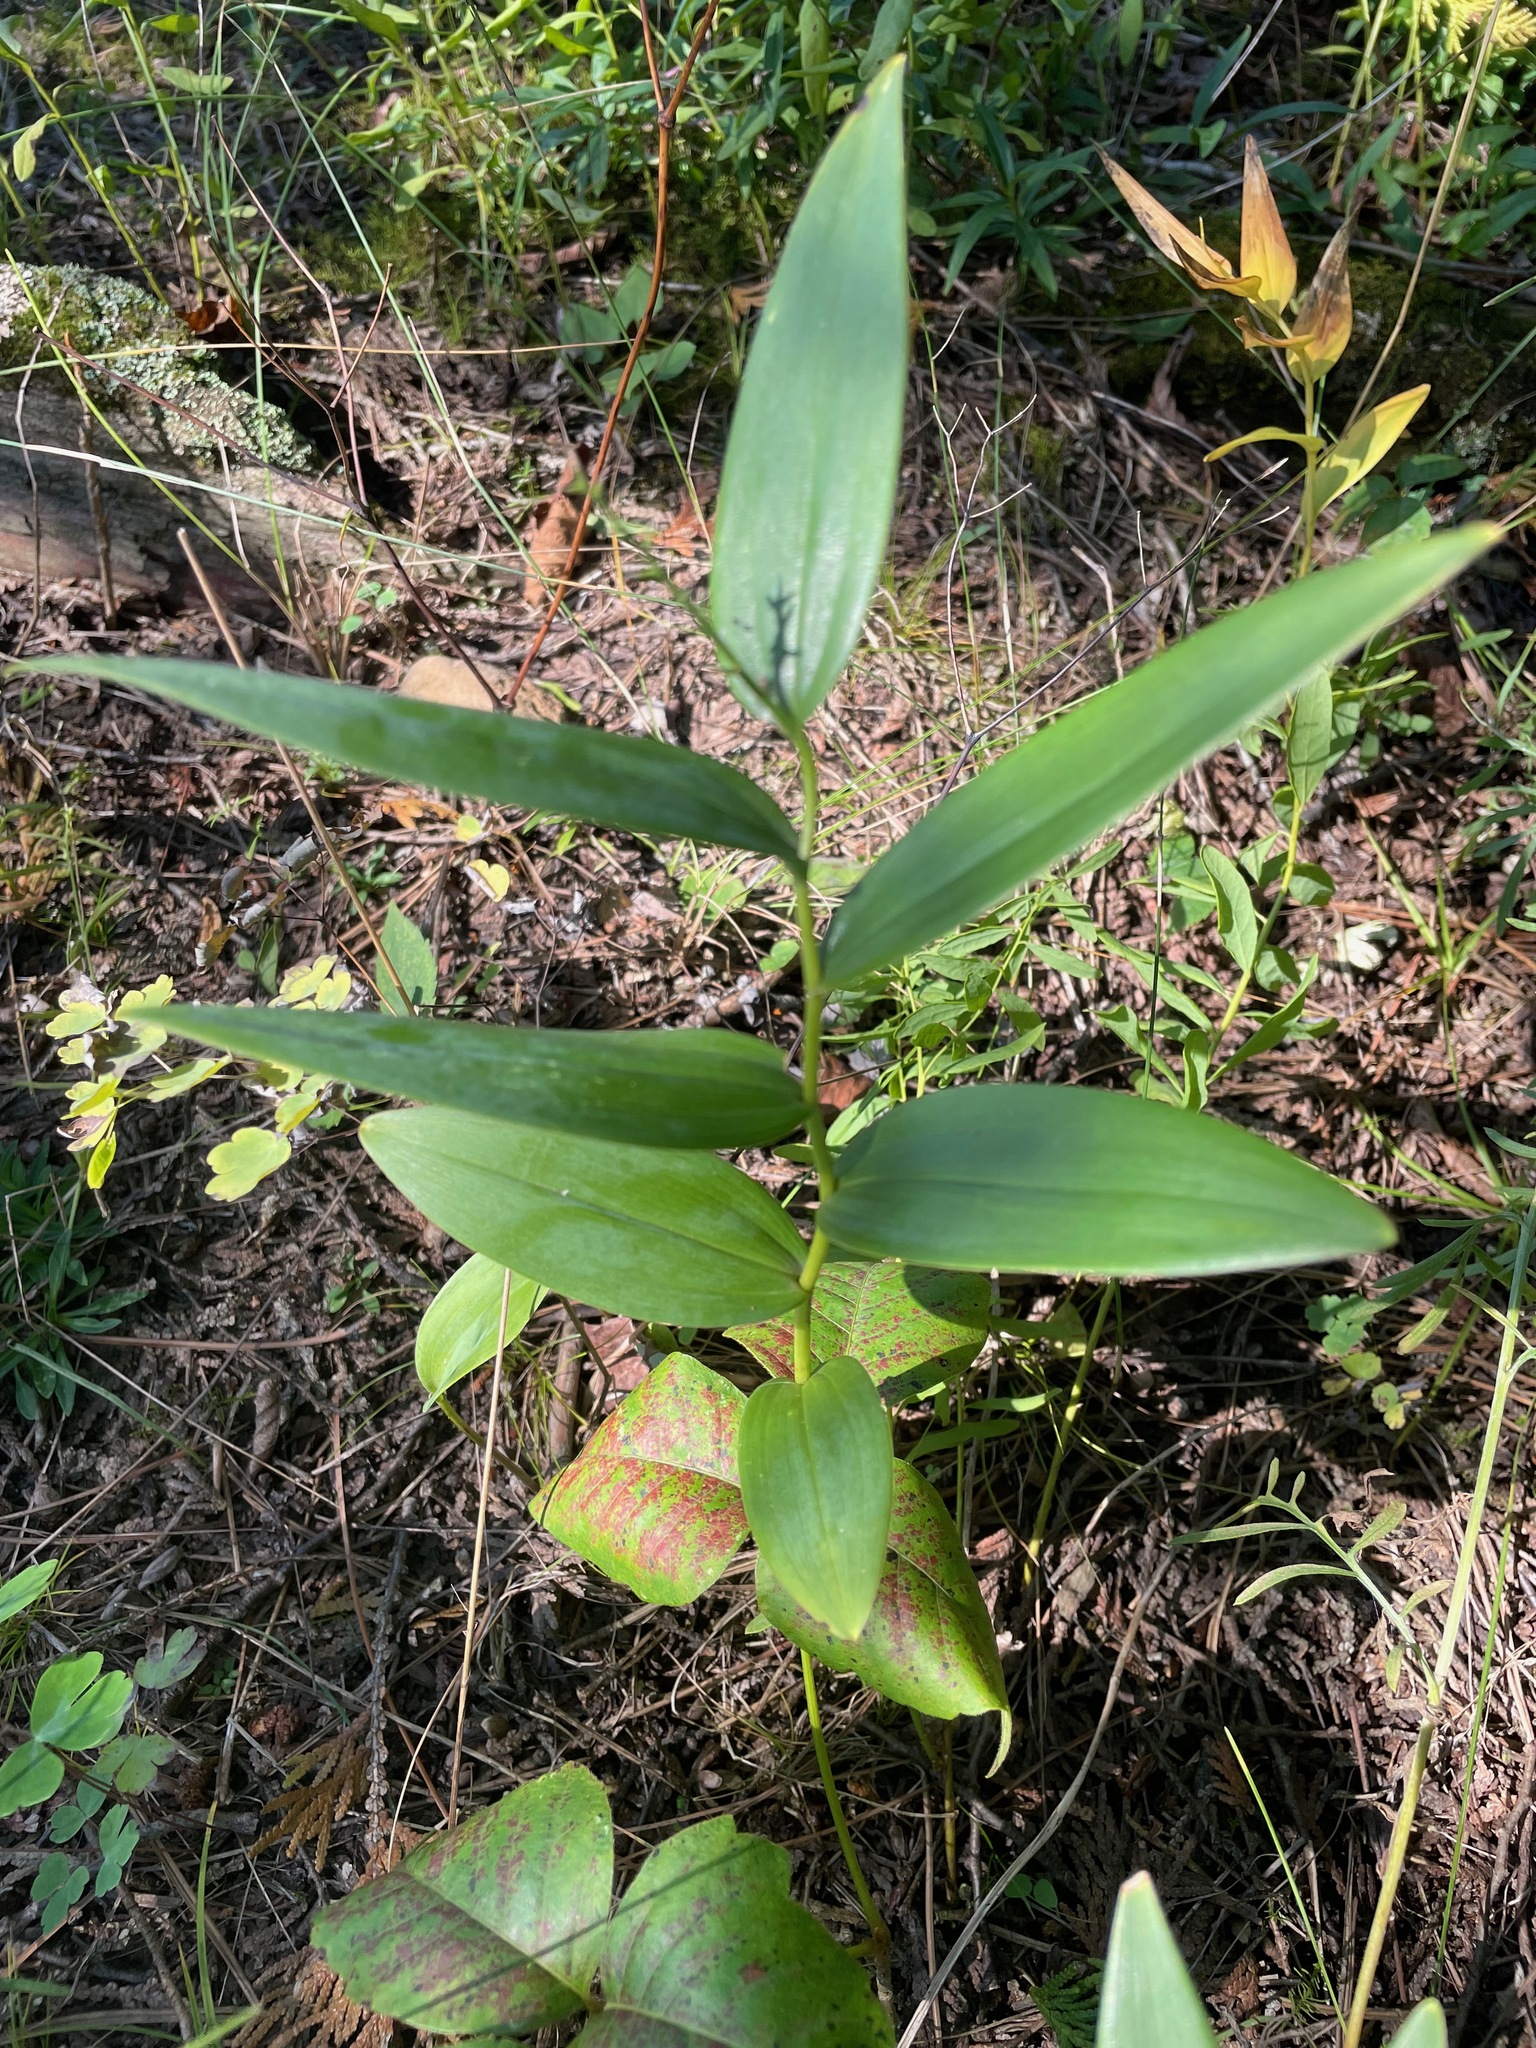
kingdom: Plantae
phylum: Tracheophyta
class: Liliopsida
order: Asparagales
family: Asparagaceae
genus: Maianthemum
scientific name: Maianthemum stellatum
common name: Little false solomon's seal
